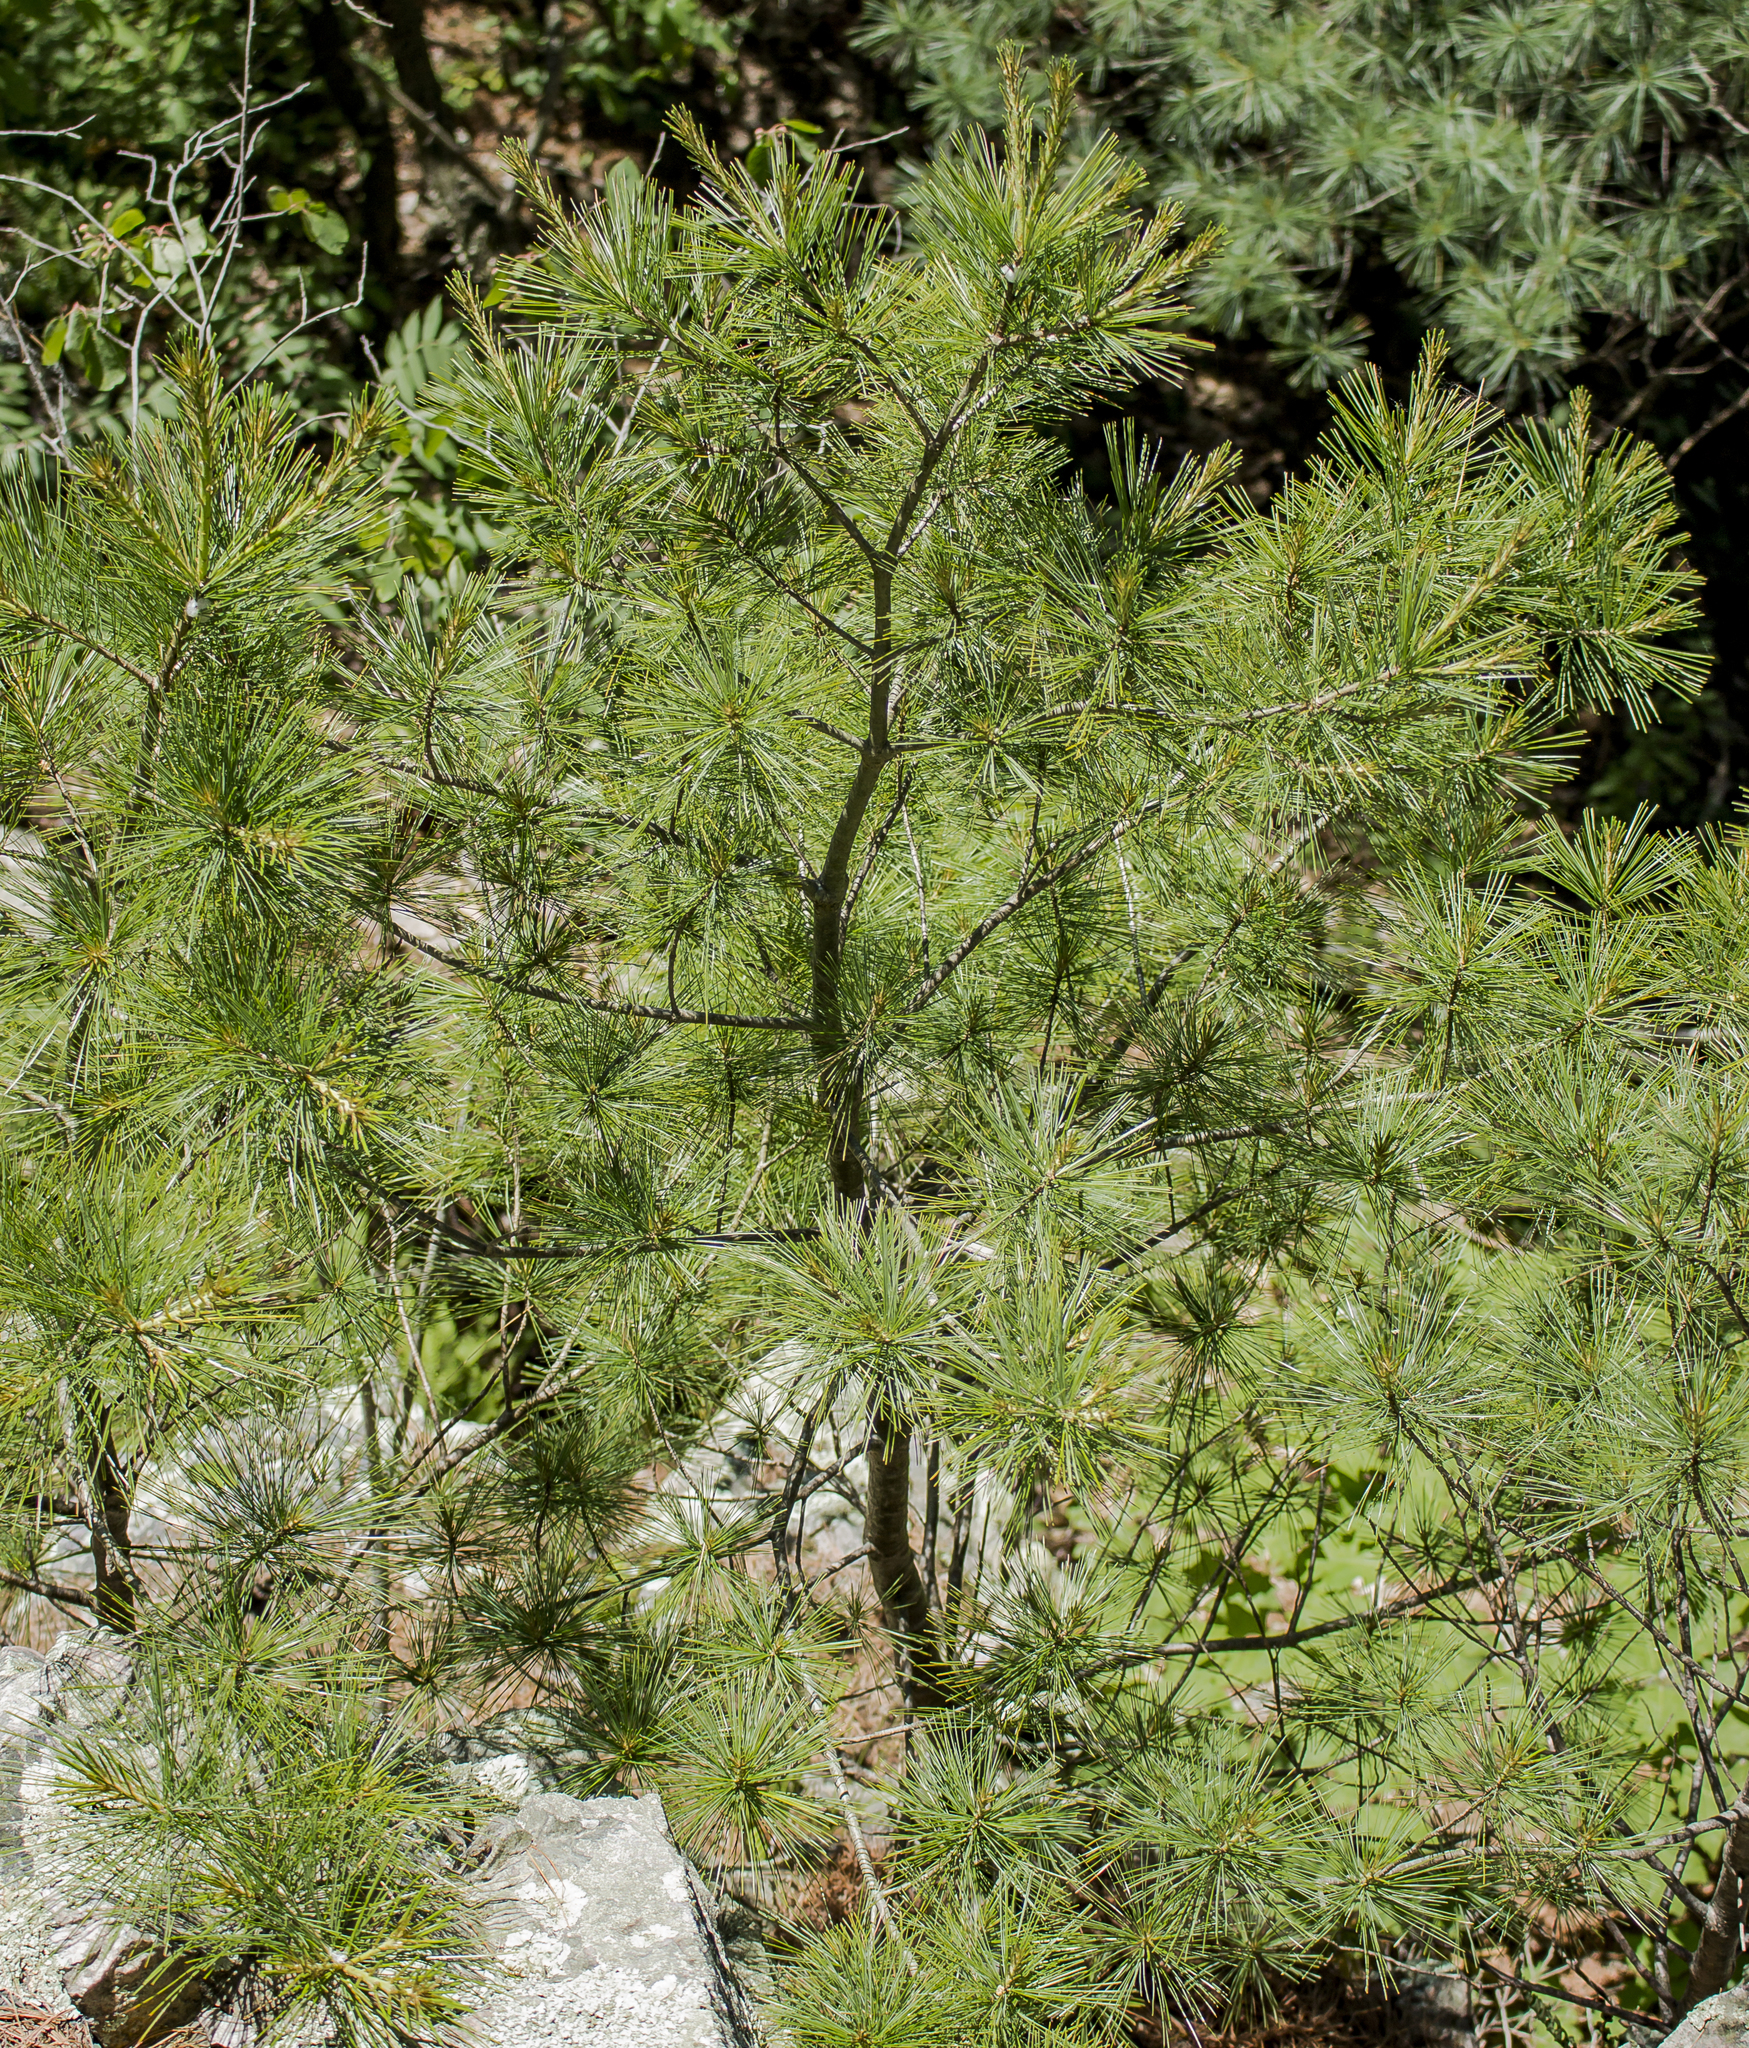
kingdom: Plantae
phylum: Tracheophyta
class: Pinopsida
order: Pinales
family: Pinaceae
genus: Pinus
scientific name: Pinus strobus
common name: Weymouth pine
